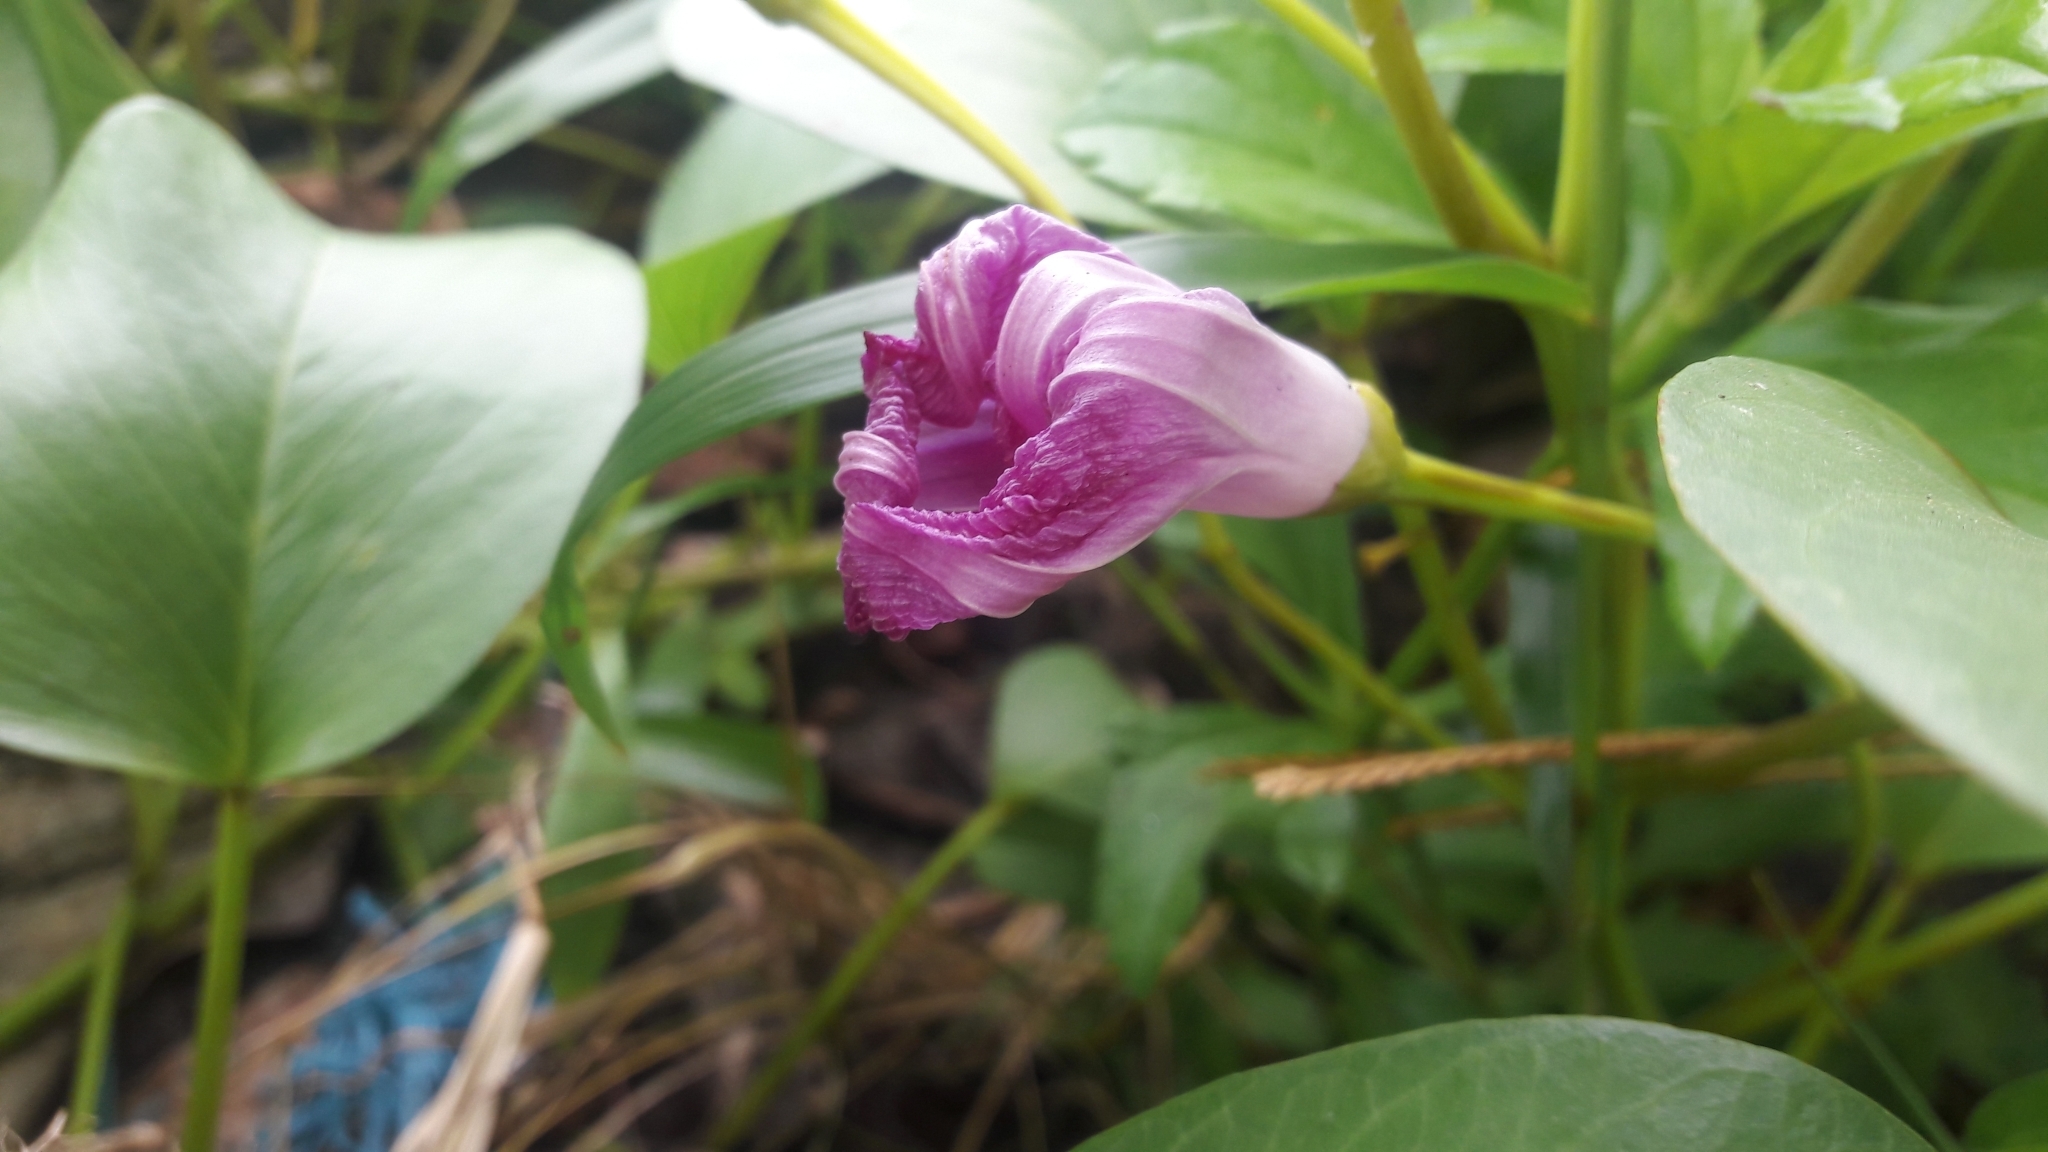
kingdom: Plantae
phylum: Tracheophyta
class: Magnoliopsida
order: Solanales
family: Convolvulaceae
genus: Ipomoea
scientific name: Ipomoea pes-caprae
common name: Beach morning glory
